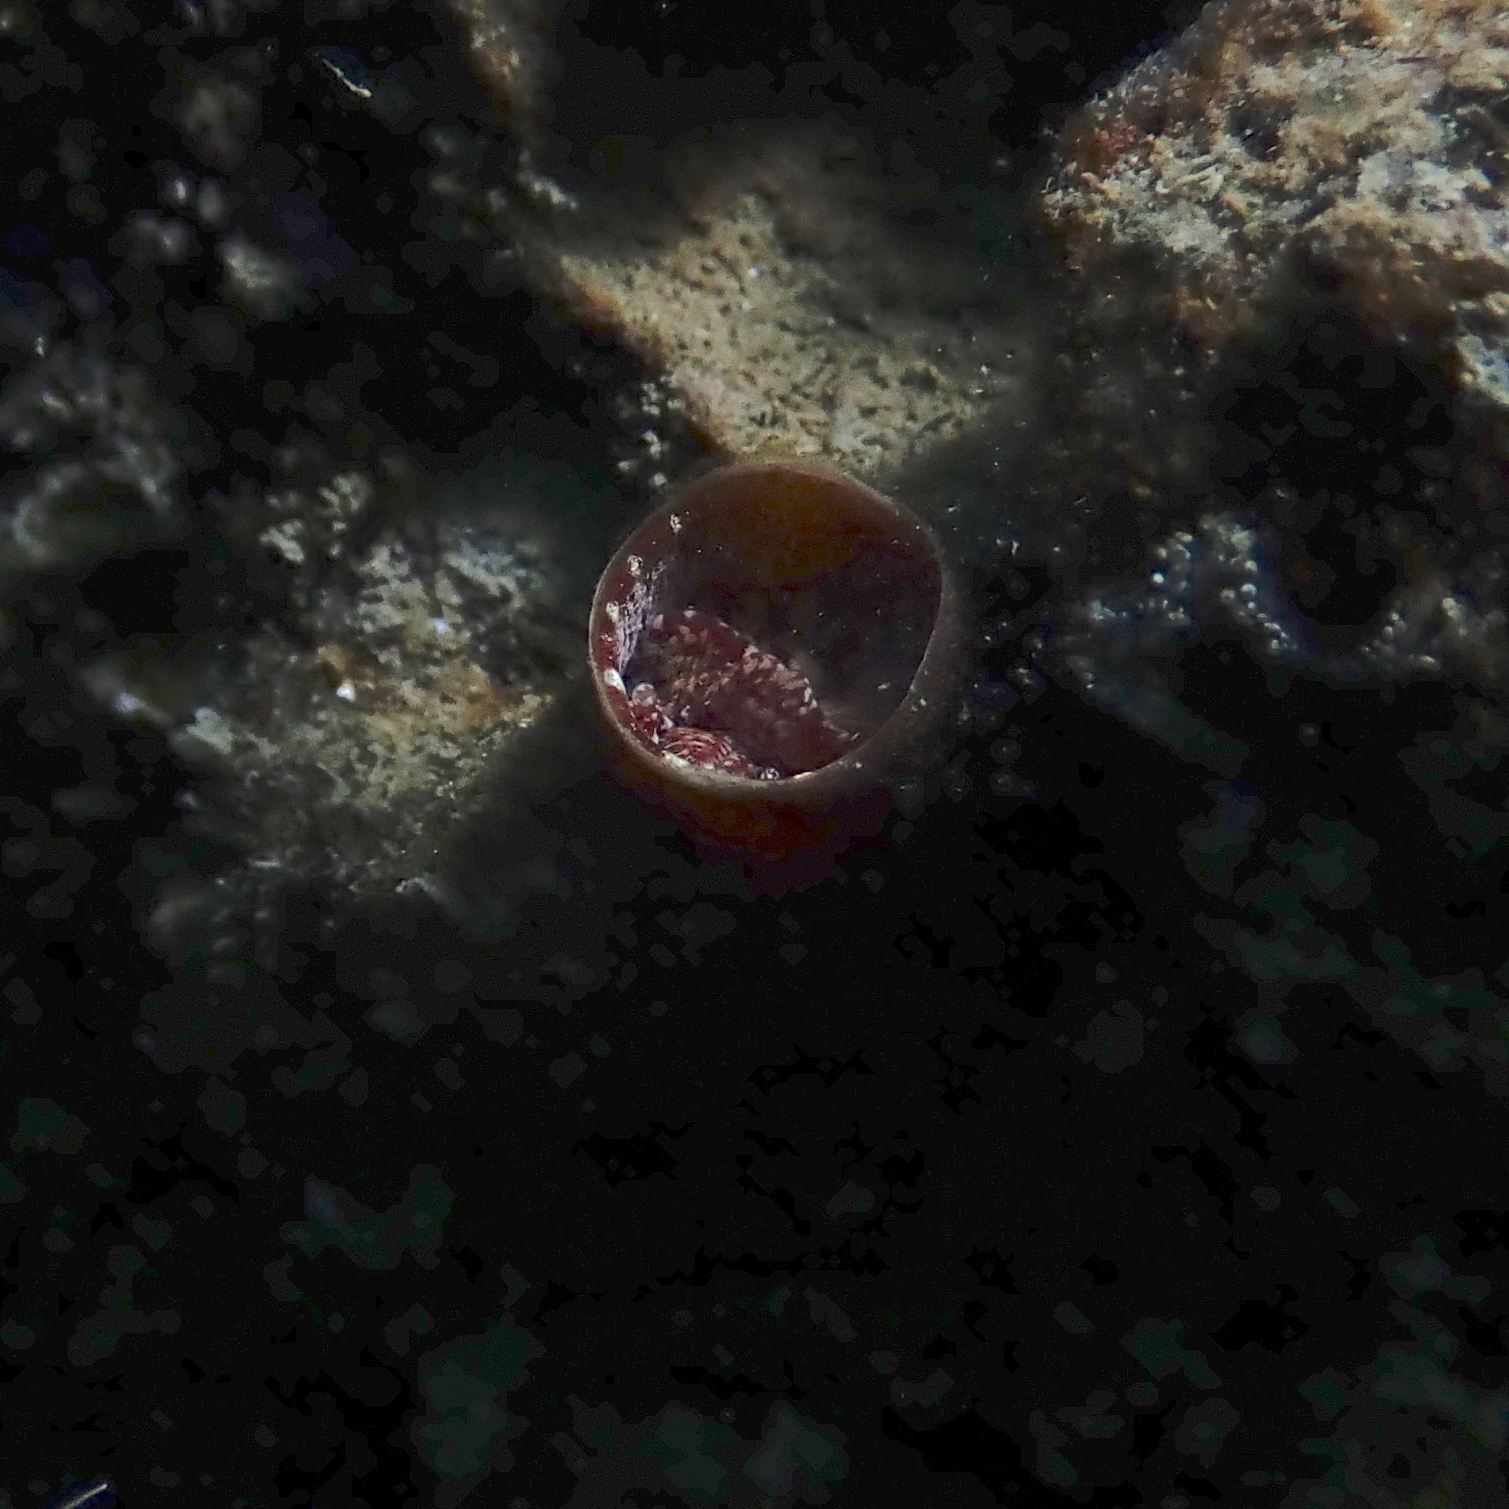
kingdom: Animalia
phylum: Mollusca
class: Gastropoda
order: Littorinimorpha
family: Vermetidae
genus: Thylacodes
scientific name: Thylacodes arenarius
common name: Giant worm shell
